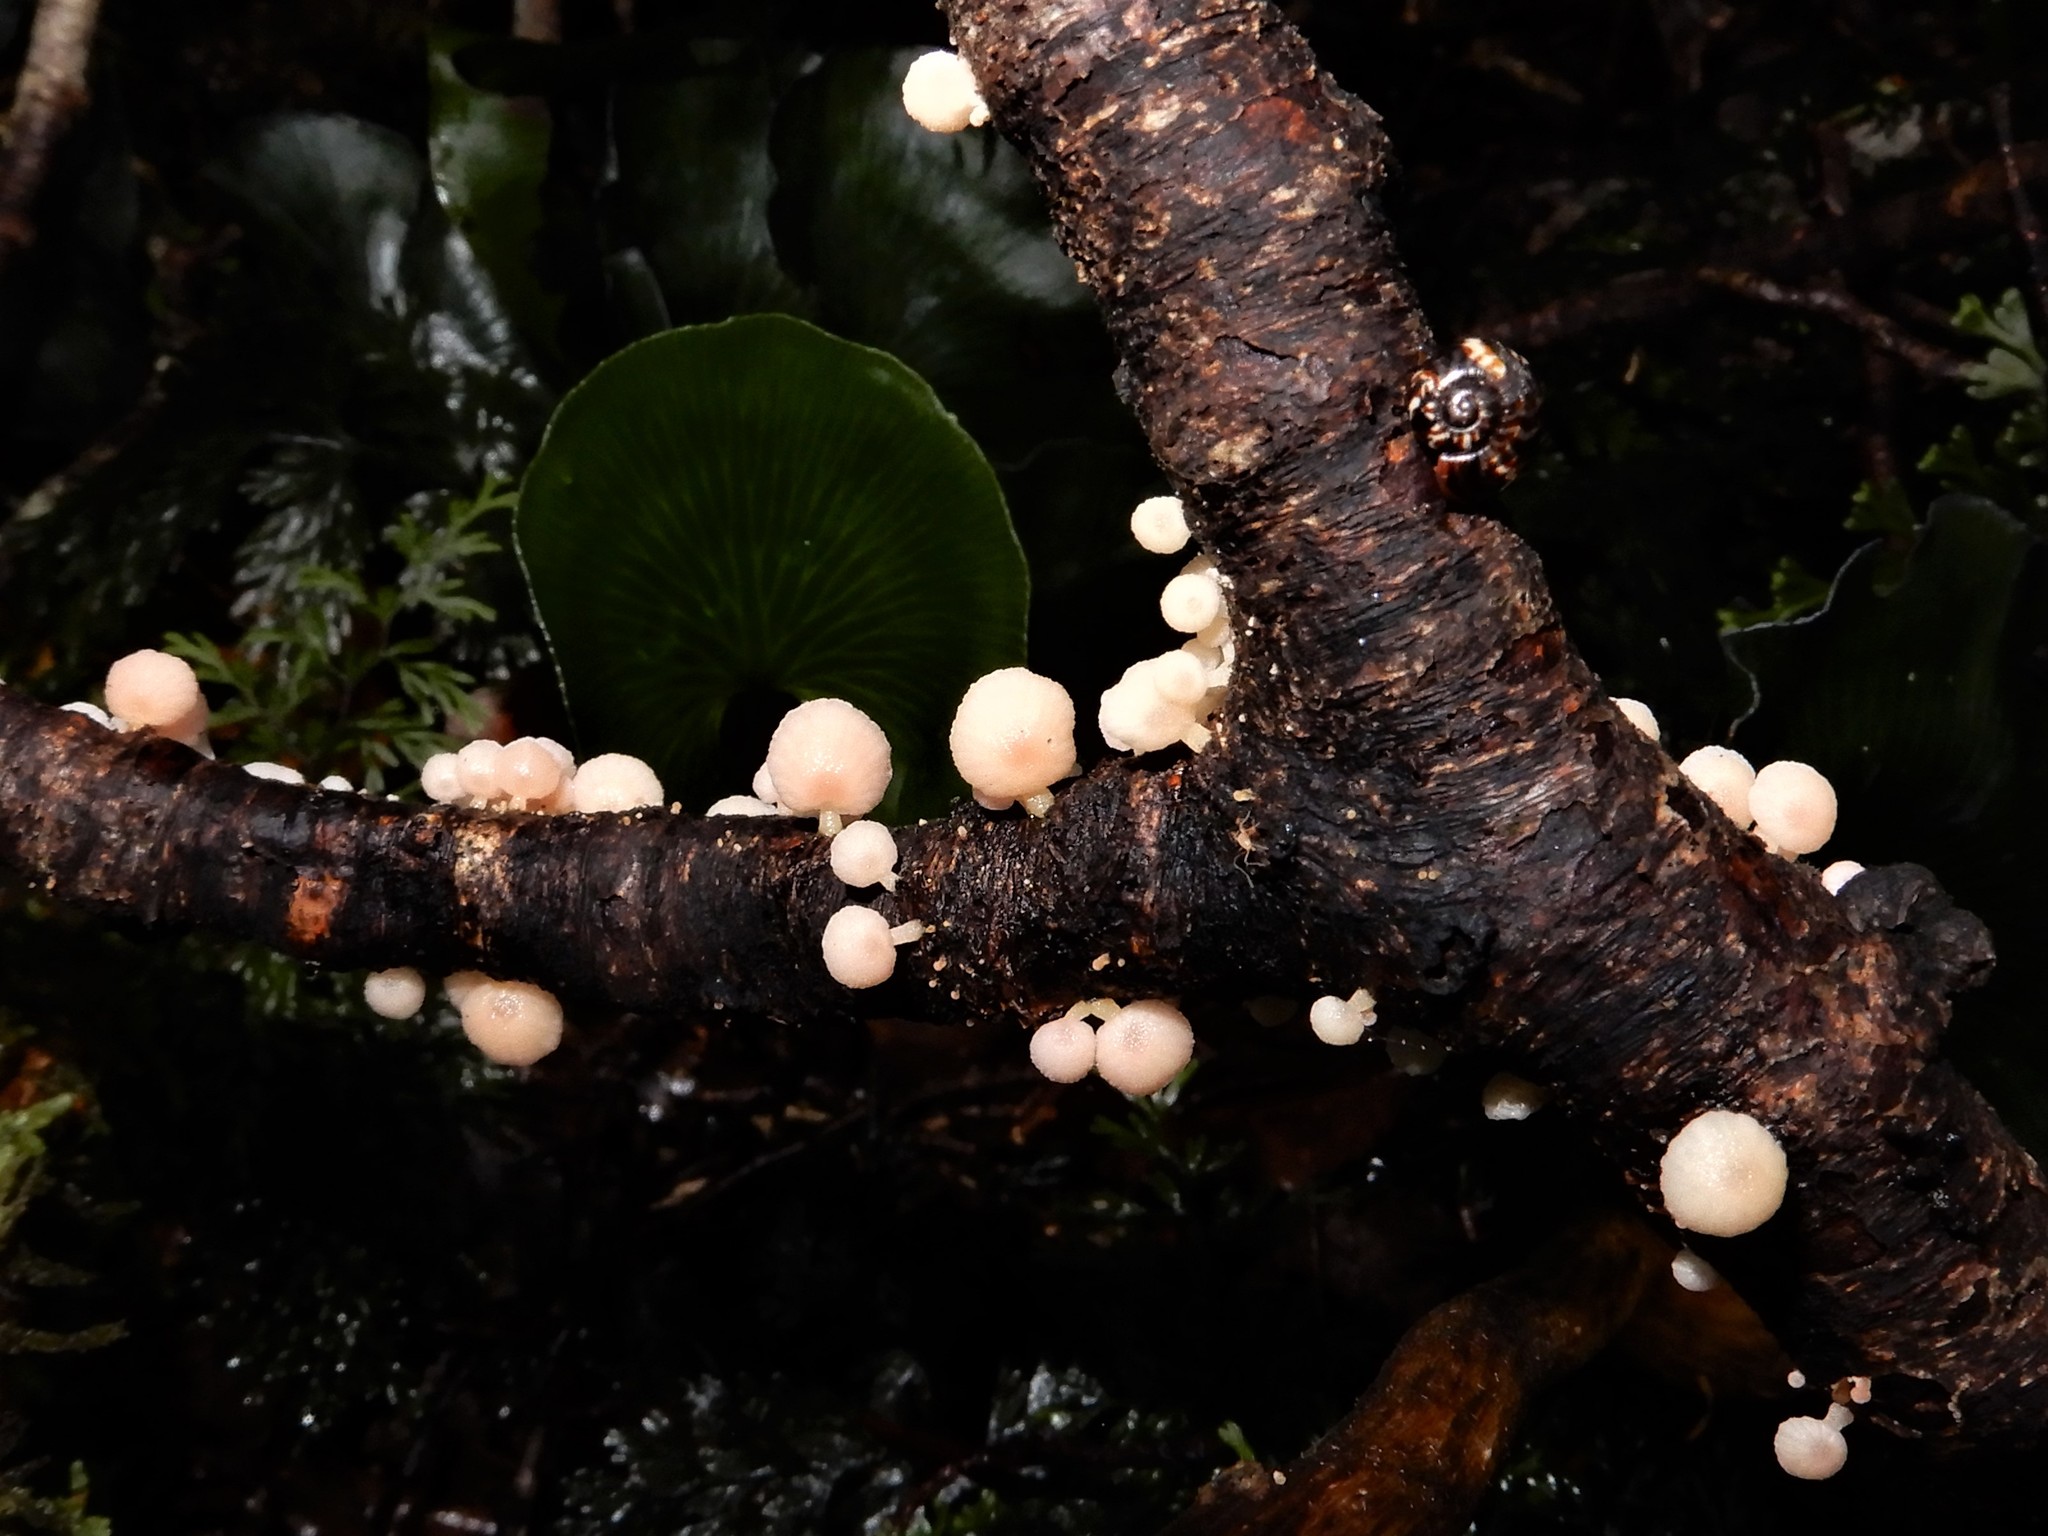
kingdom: Fungi
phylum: Basidiomycota
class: Agaricomycetes
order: Agaricales
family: Mycenaceae
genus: Mycena
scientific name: Mycena roseoflava
